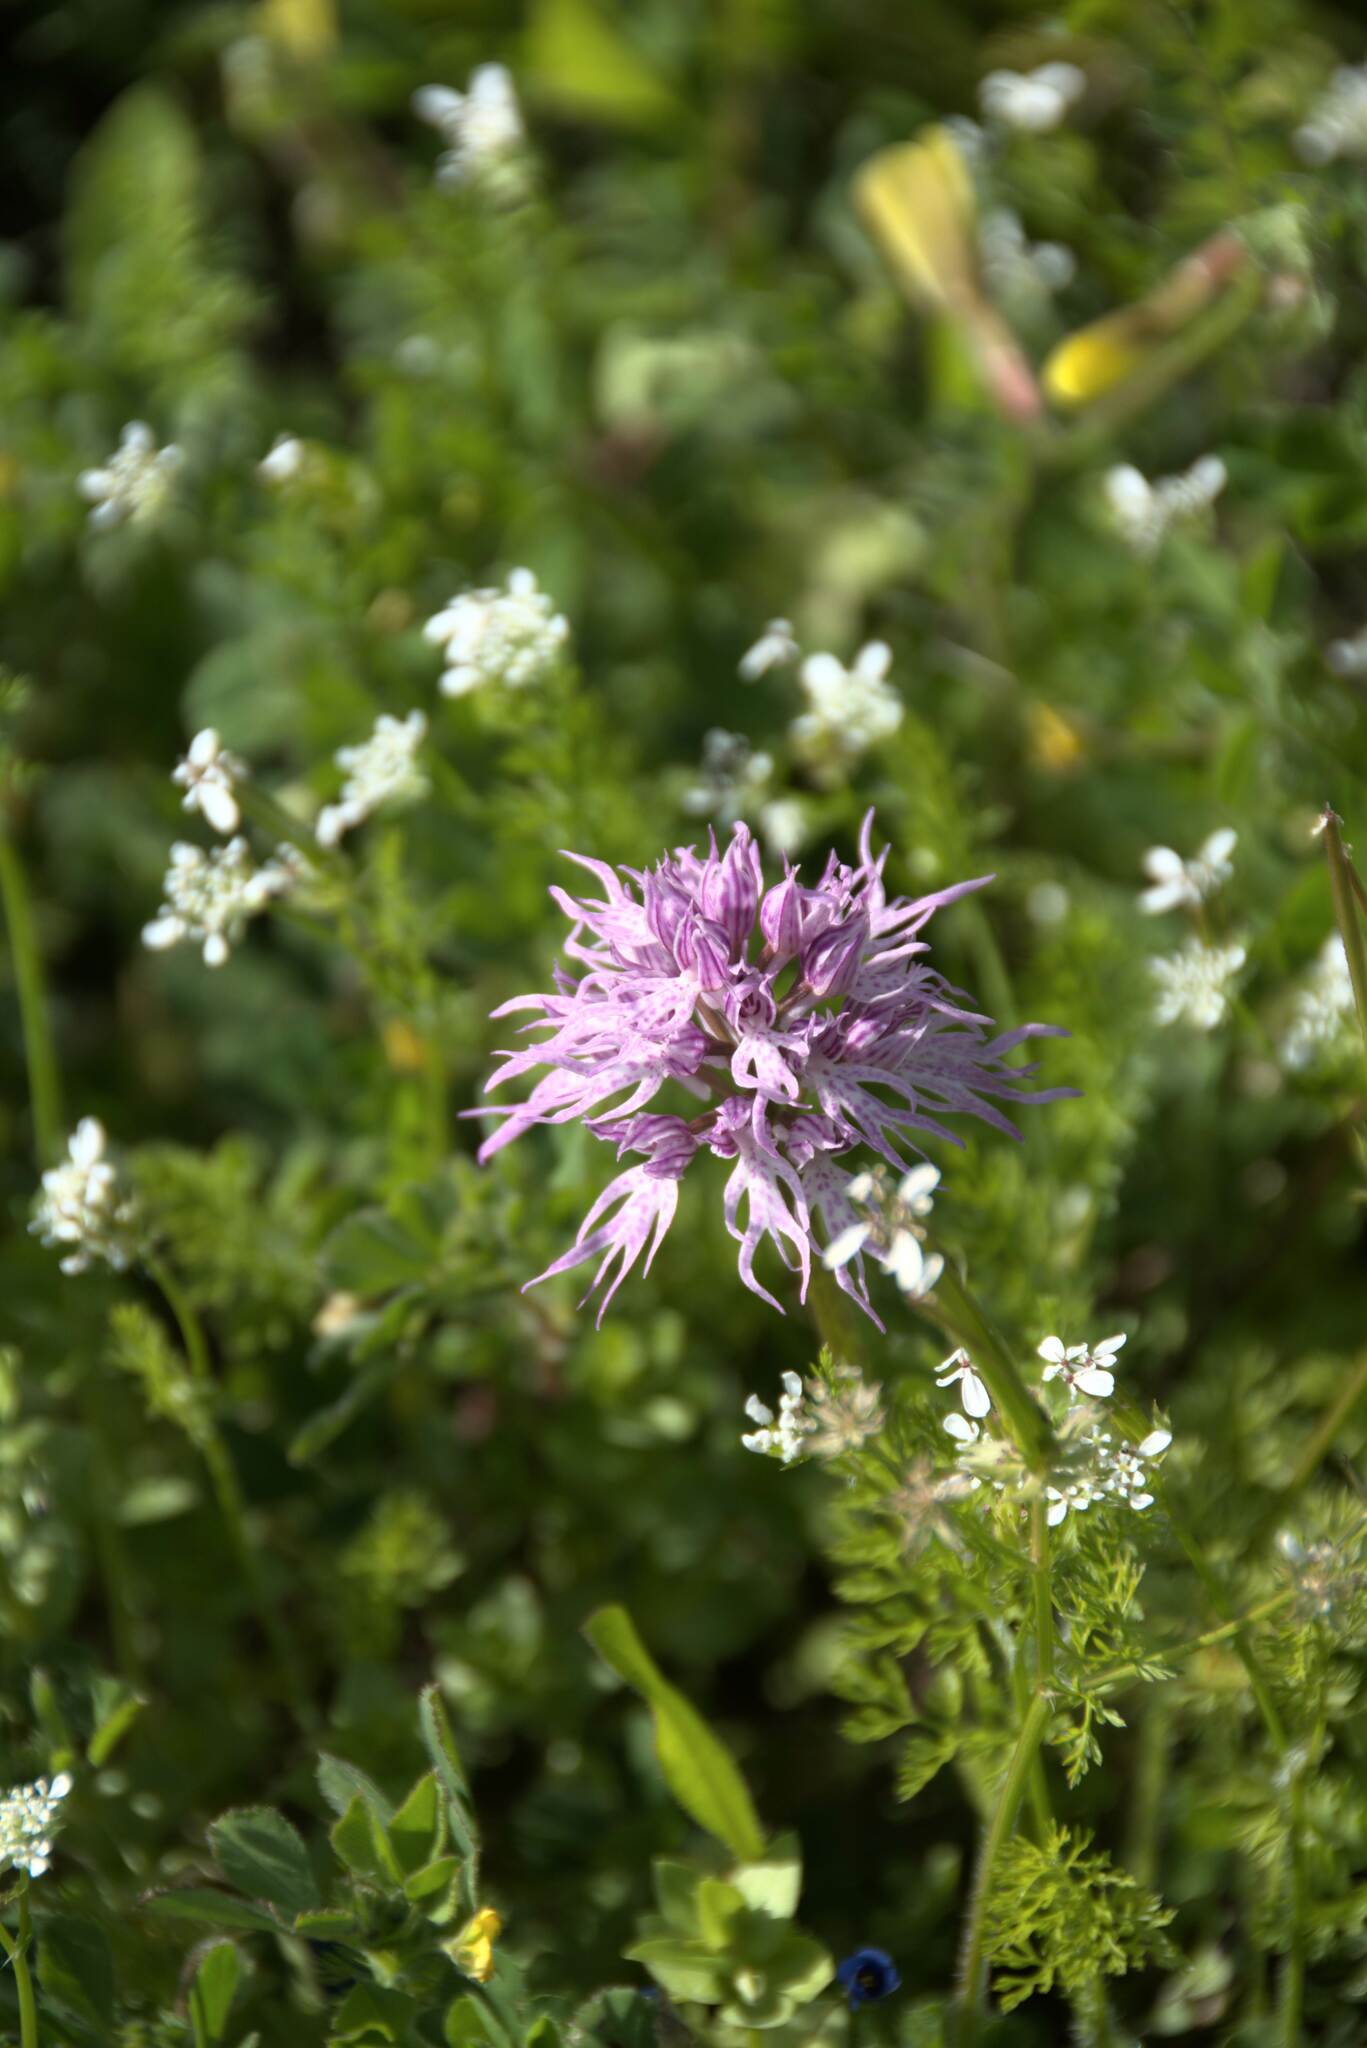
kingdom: Plantae
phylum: Tracheophyta
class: Liliopsida
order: Asparagales
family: Orchidaceae
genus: Orchis
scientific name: Orchis italica
